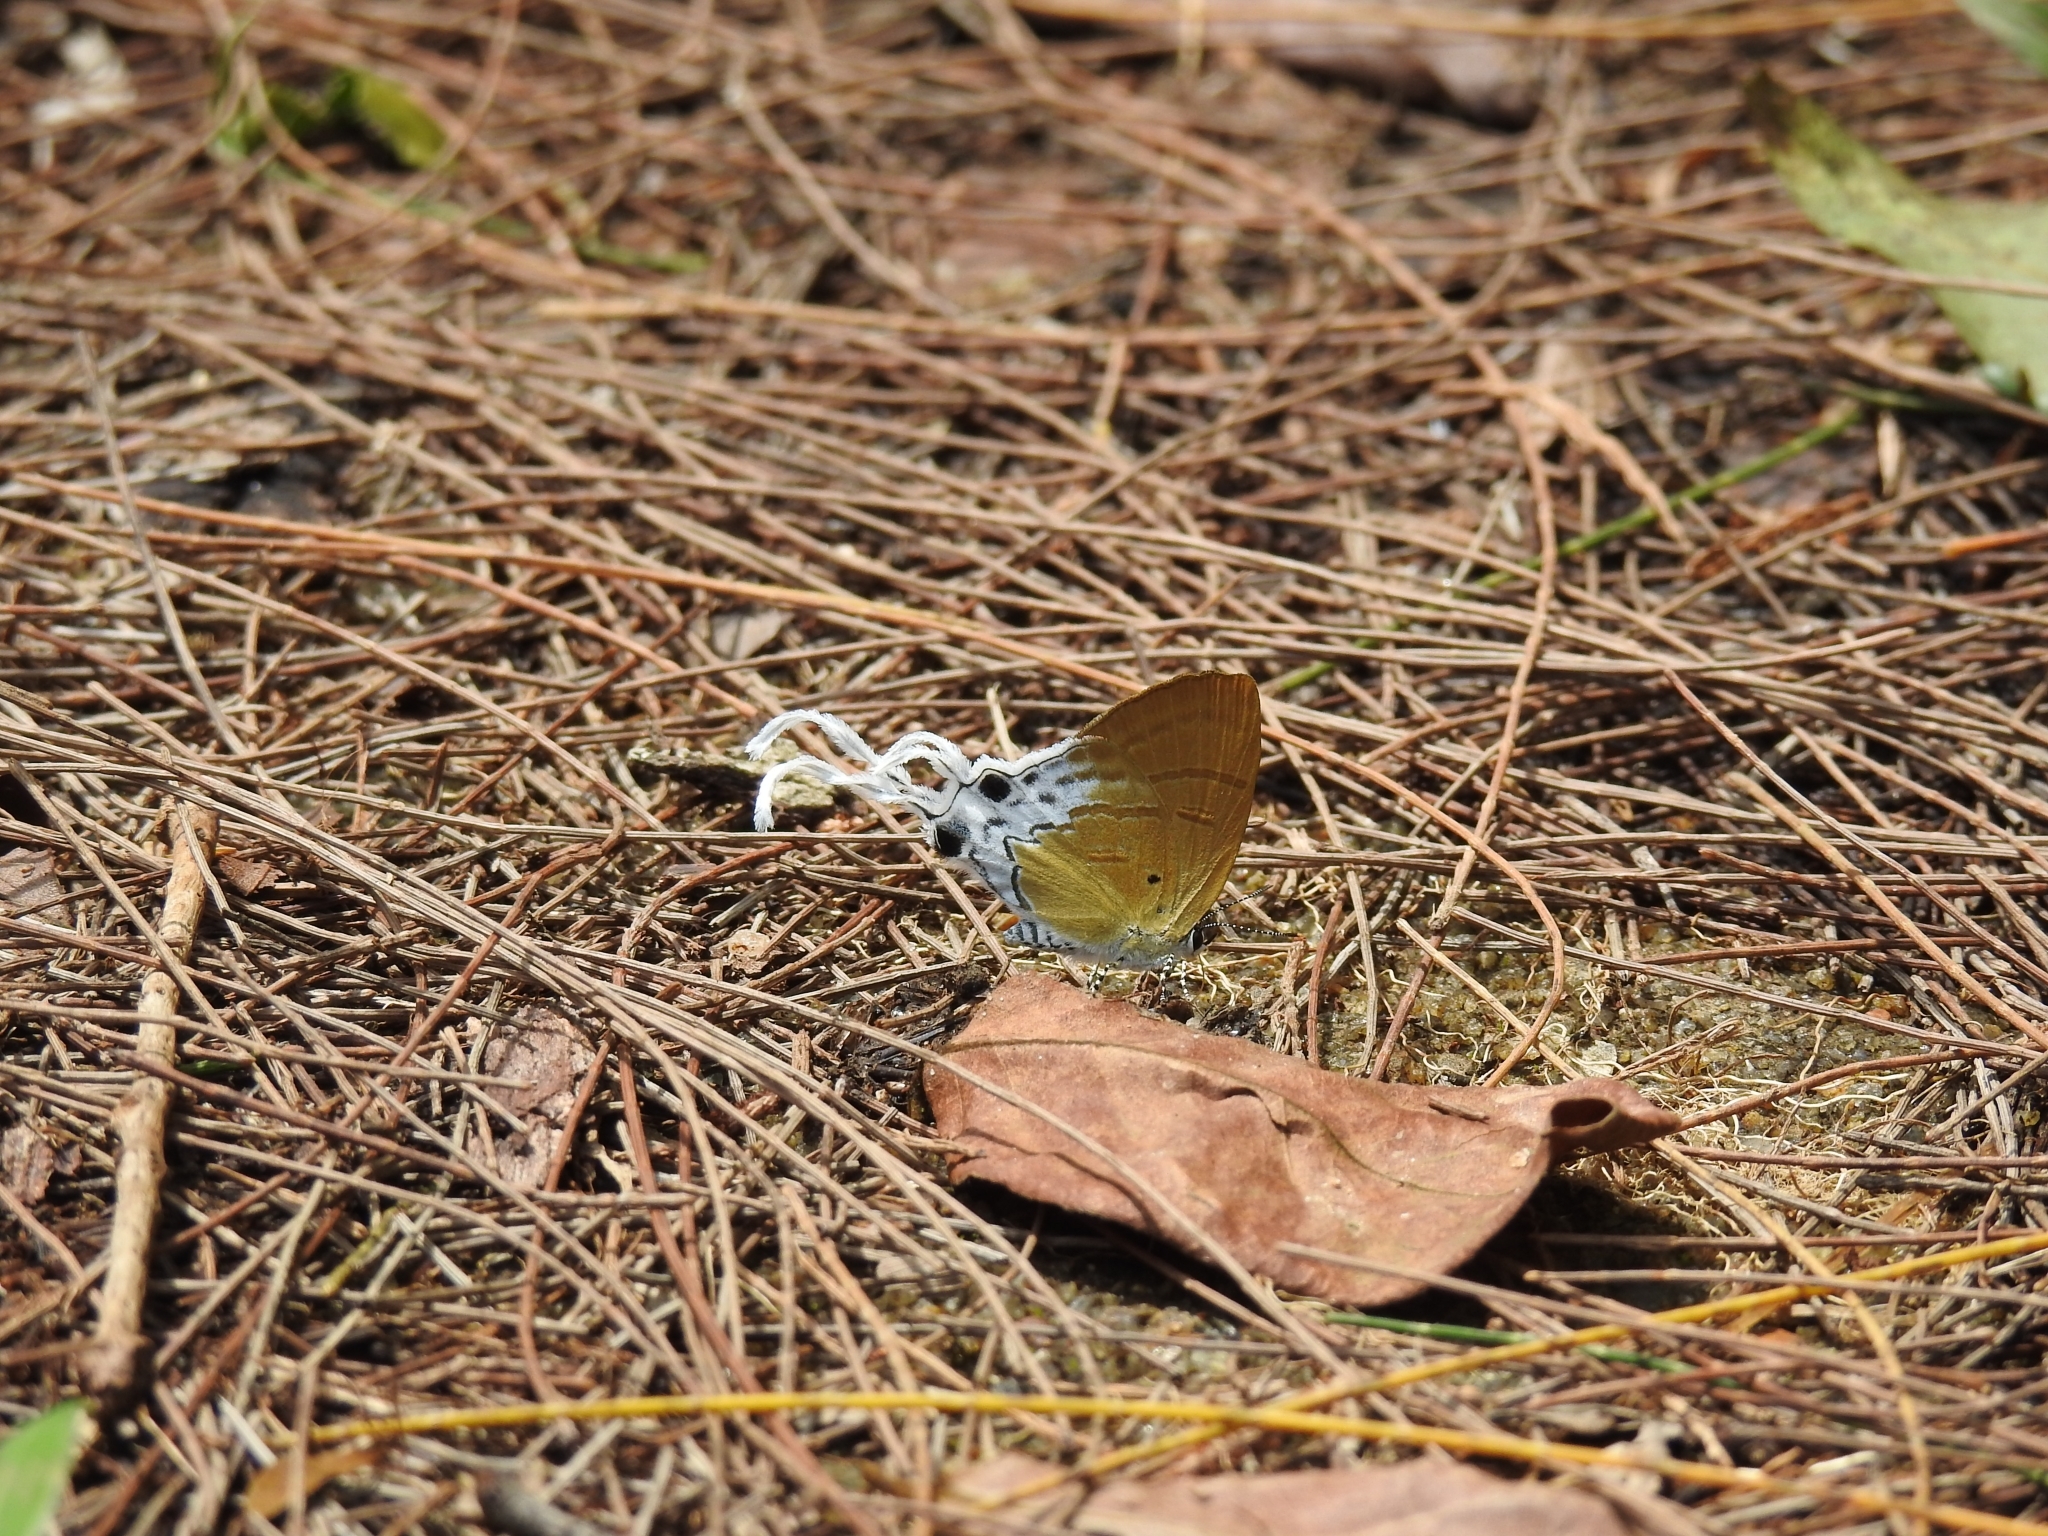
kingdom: Animalia
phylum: Arthropoda
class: Insecta
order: Lepidoptera
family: Lycaenidae
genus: Zeltus
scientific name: Zeltus amasa
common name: Fluffy tit
